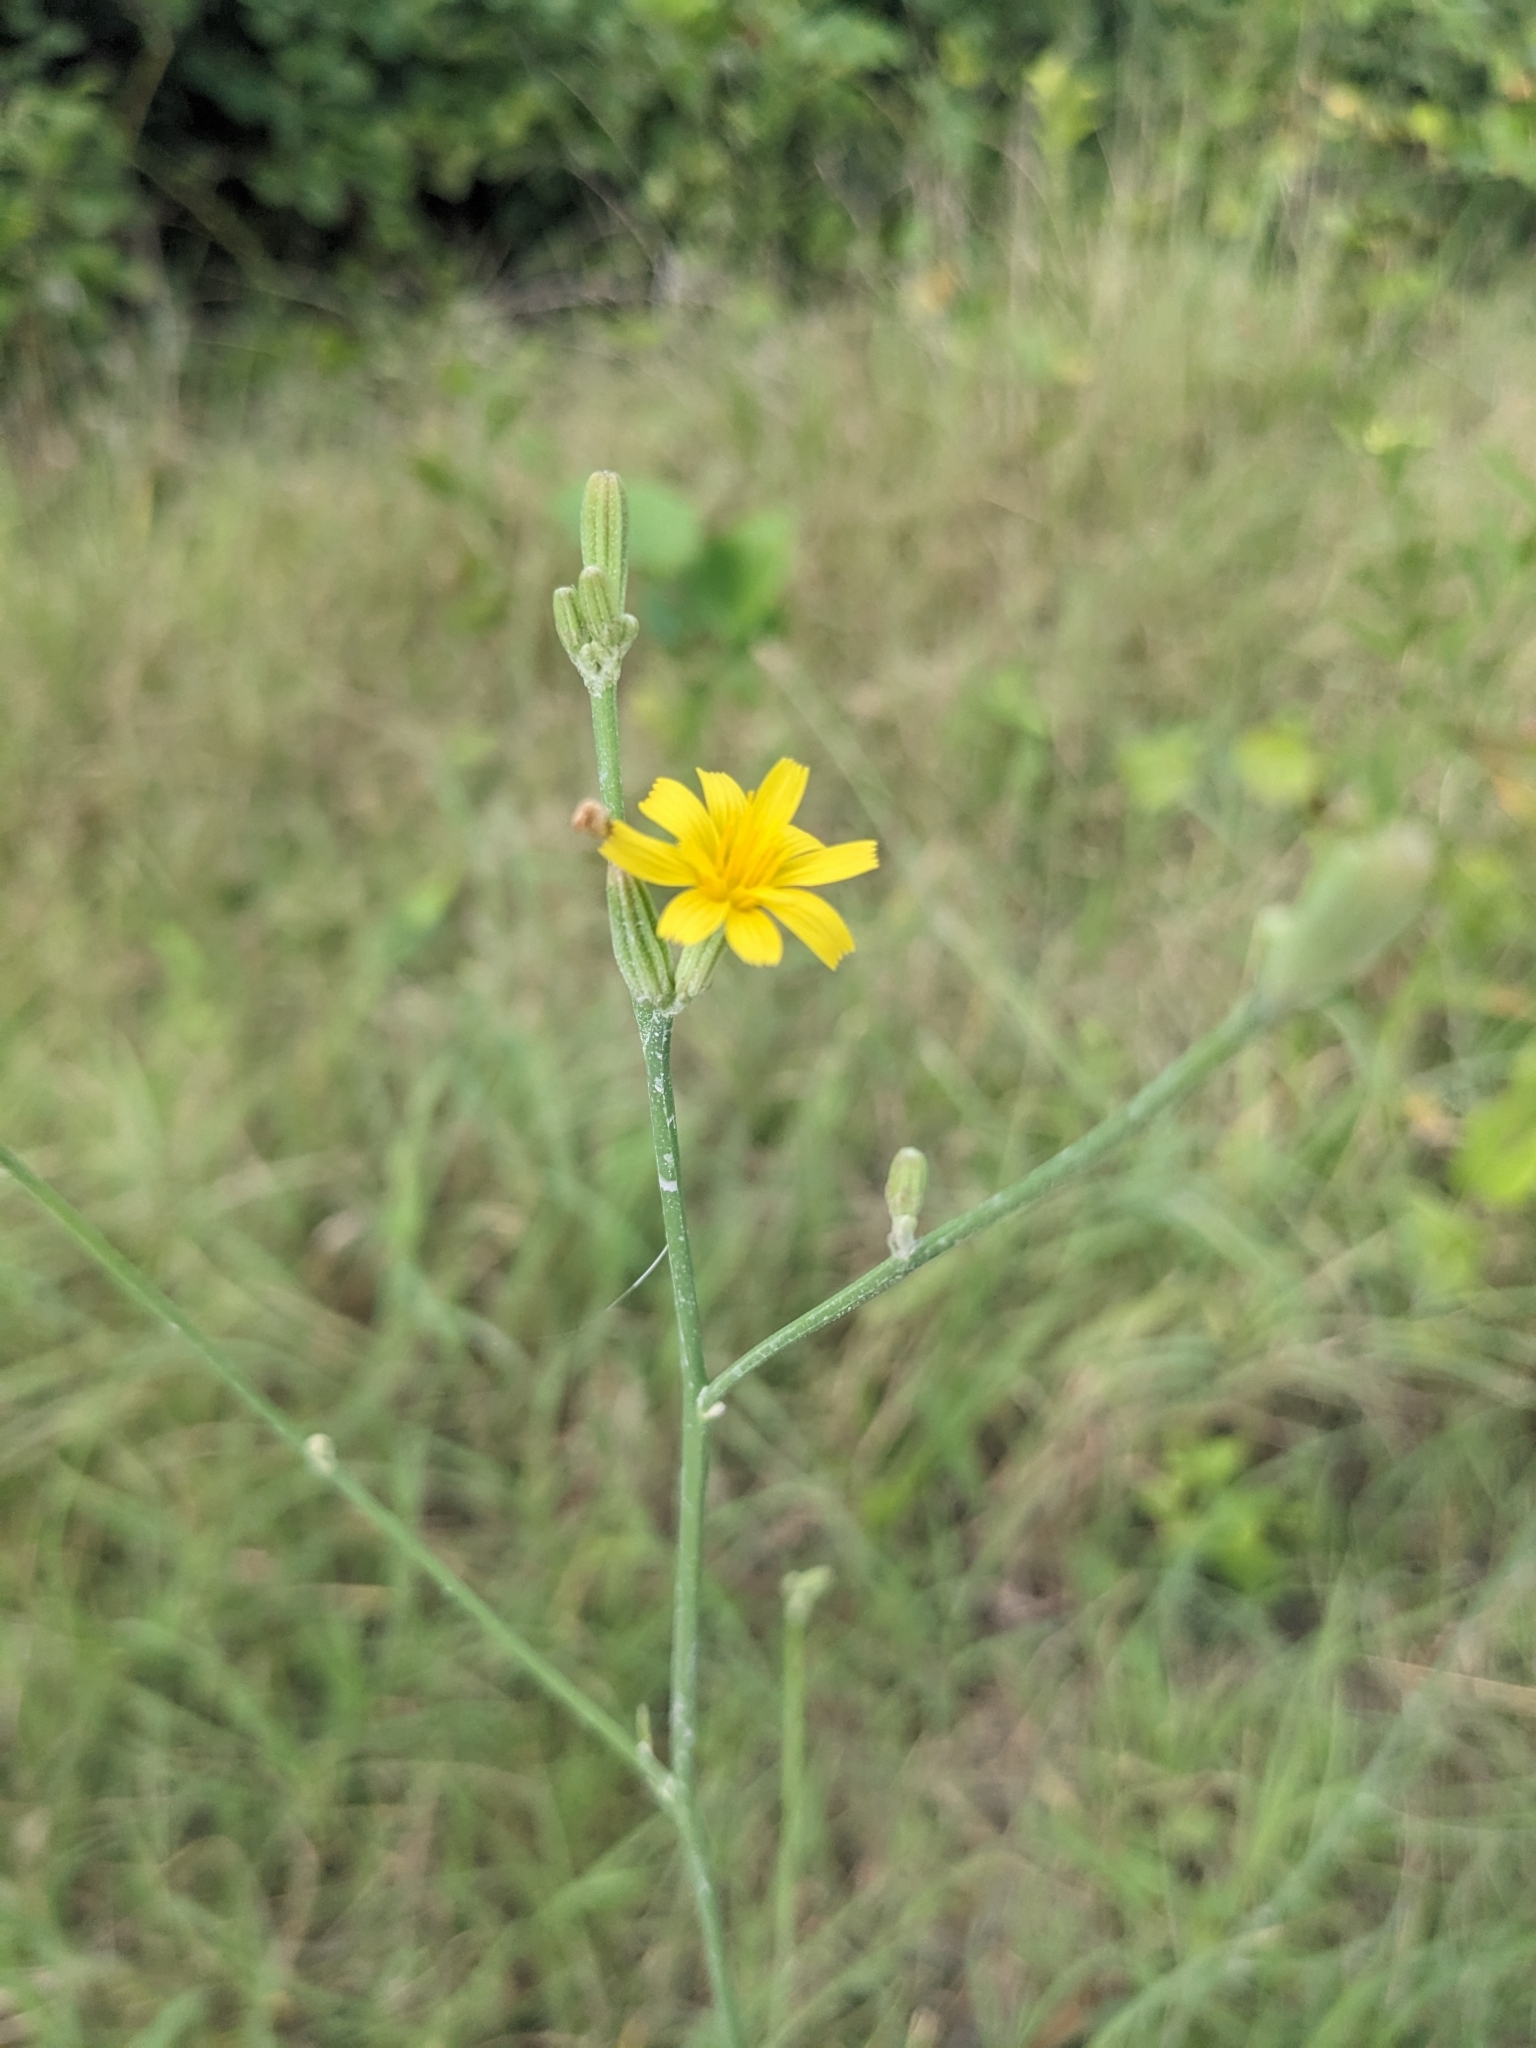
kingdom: Plantae
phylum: Tracheophyta
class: Magnoliopsida
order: Asterales
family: Asteraceae
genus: Chondrilla
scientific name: Chondrilla juncea
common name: Skeleton weed
